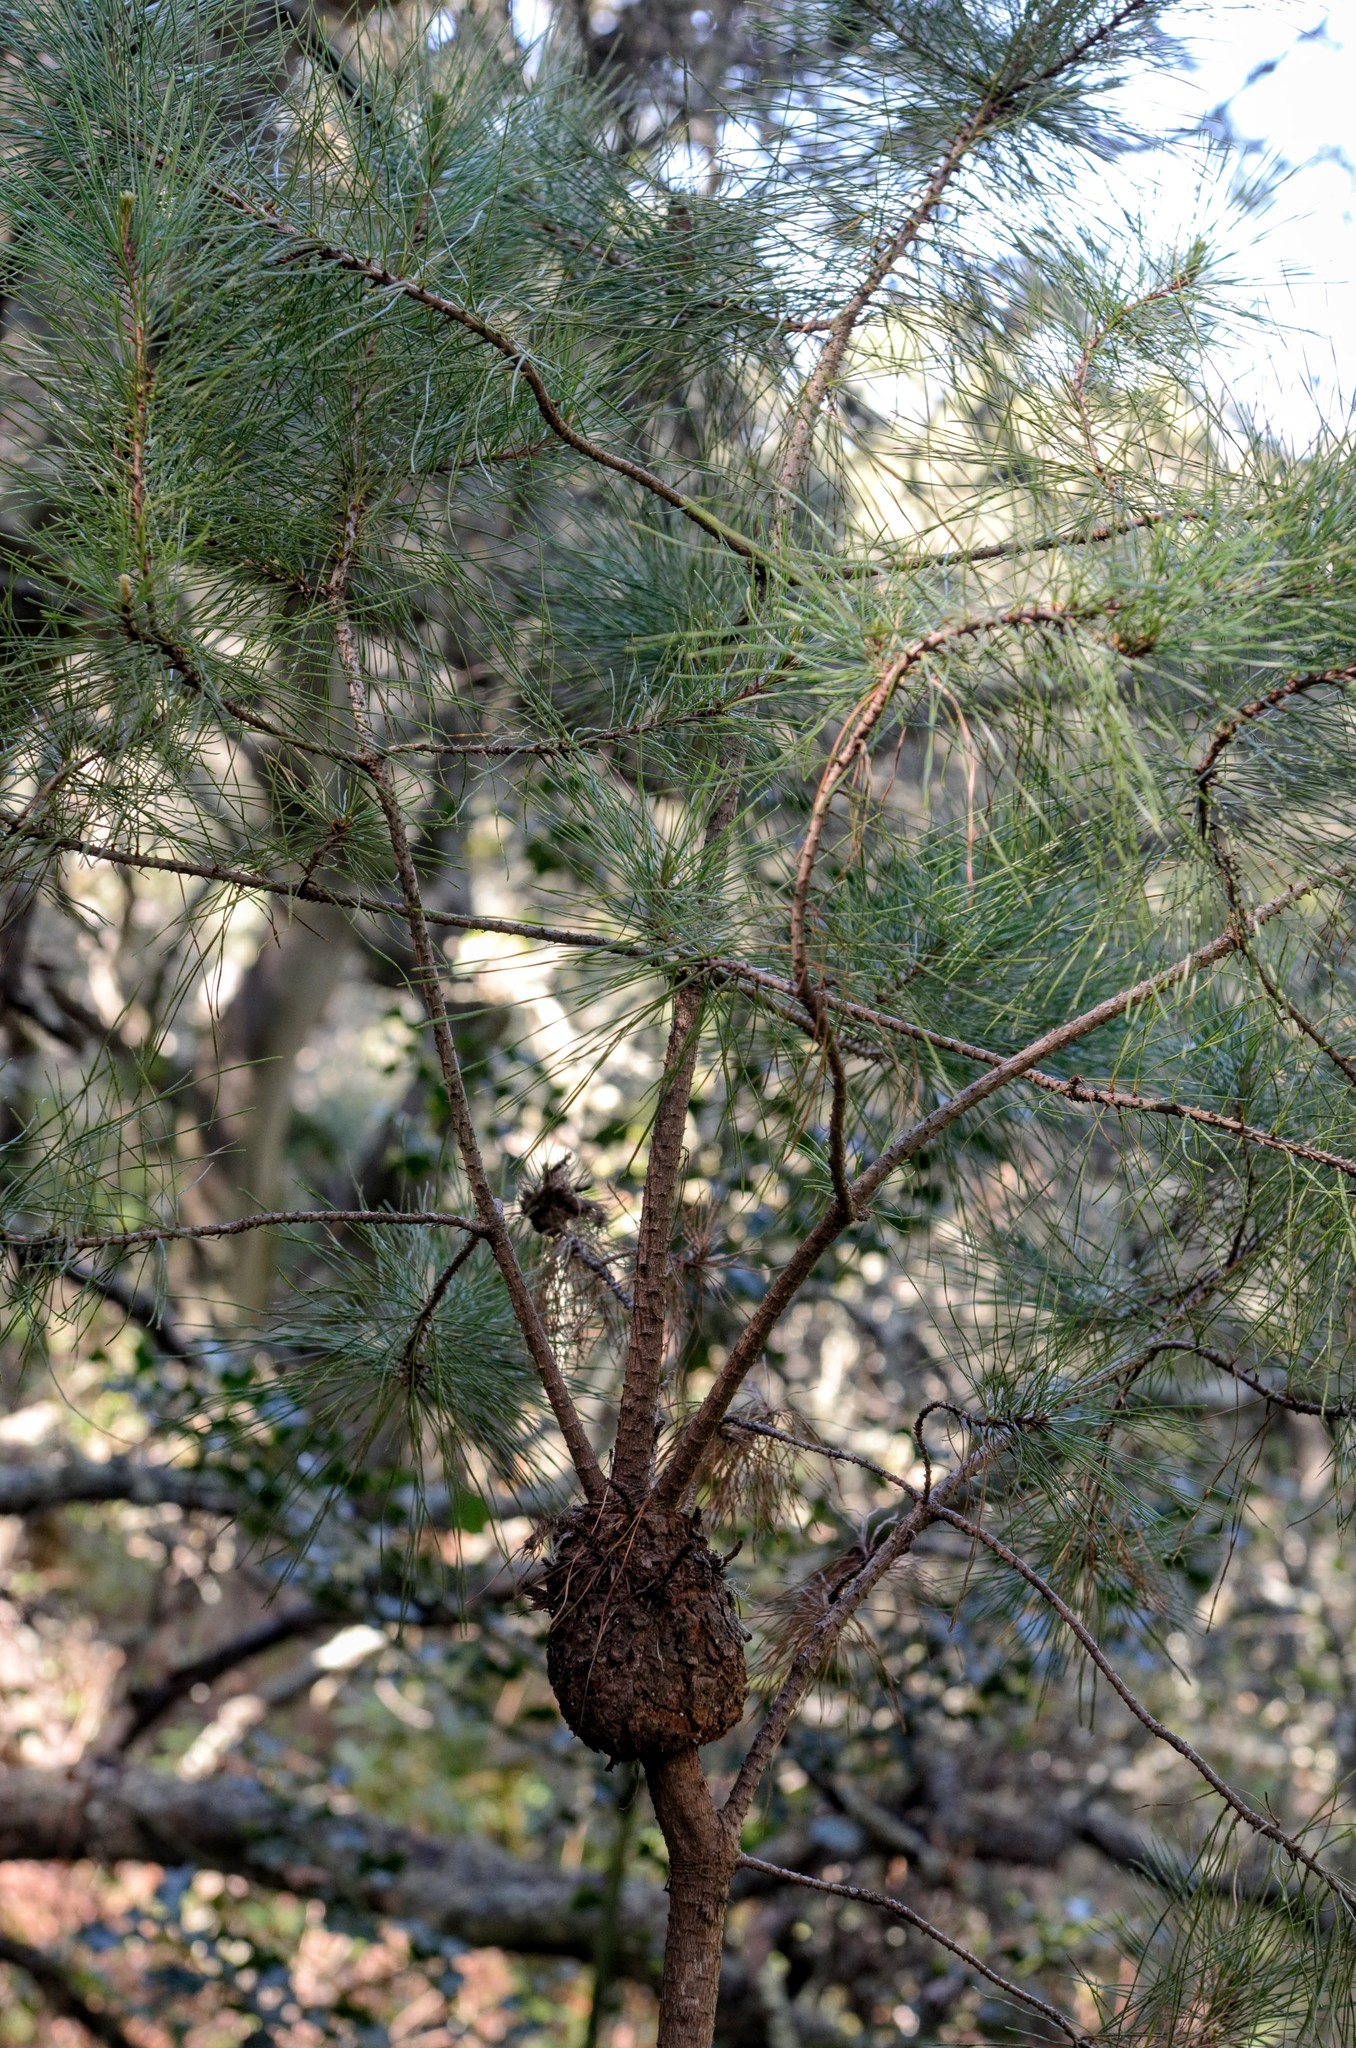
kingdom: Fungi
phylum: Basidiomycota
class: Pucciniomycetes
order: Pucciniales
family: Cronartiaceae
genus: Cronartium
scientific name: Cronartium harknessii
